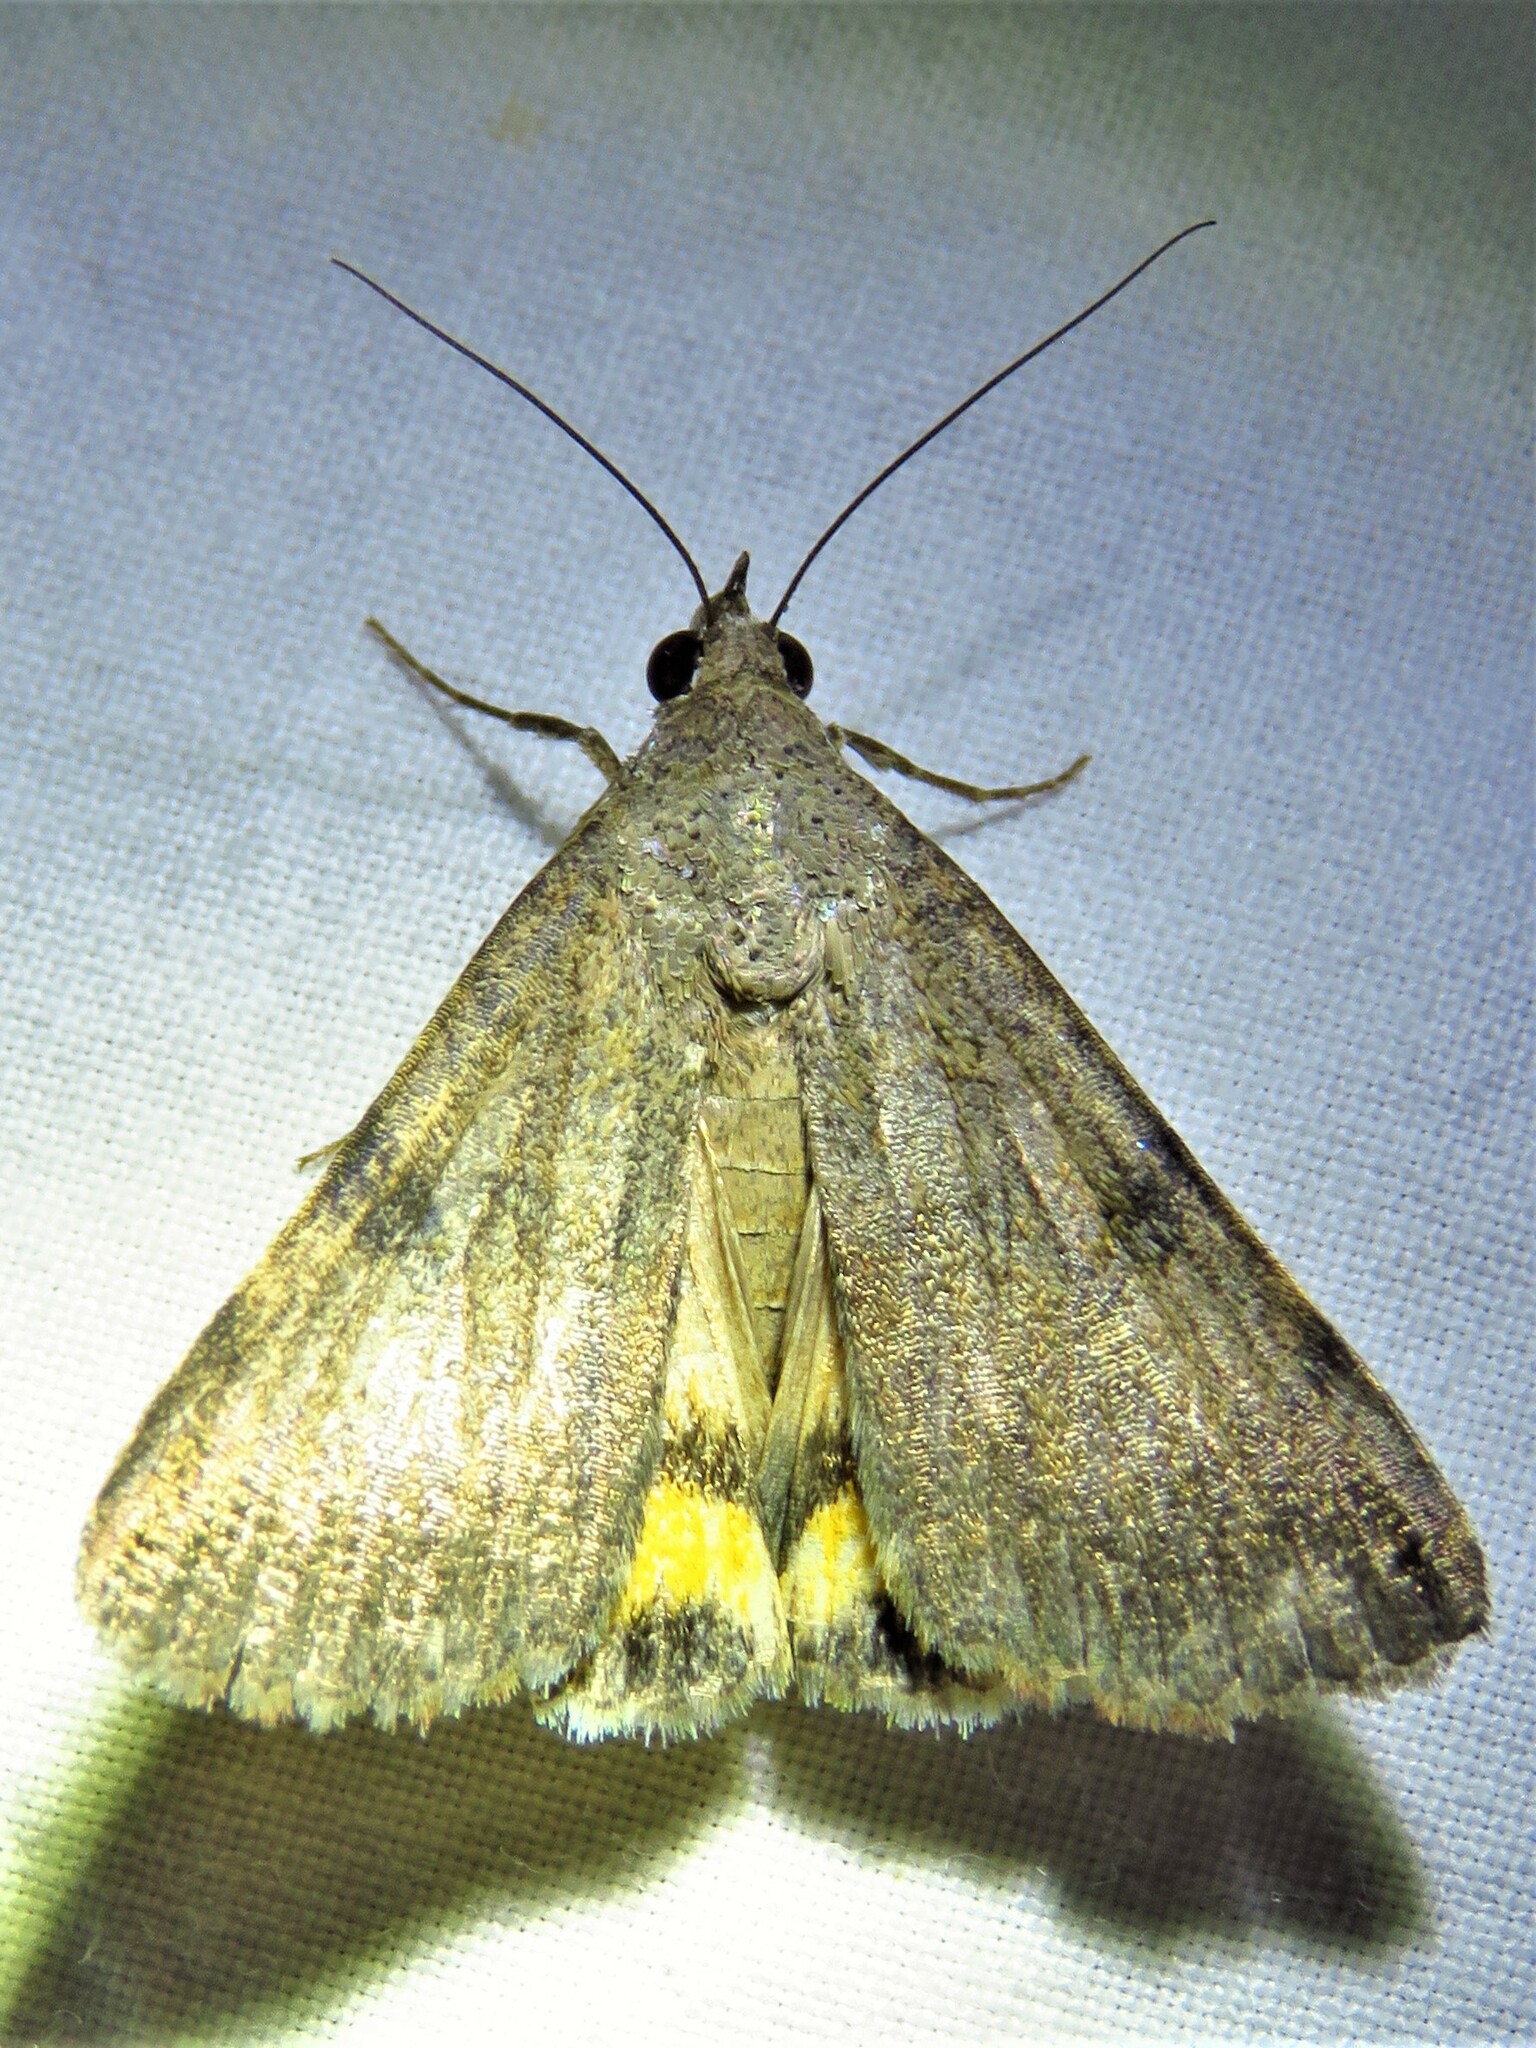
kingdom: Animalia
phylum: Arthropoda
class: Insecta
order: Lepidoptera
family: Erebidae
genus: Bulia
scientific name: Bulia deducta
